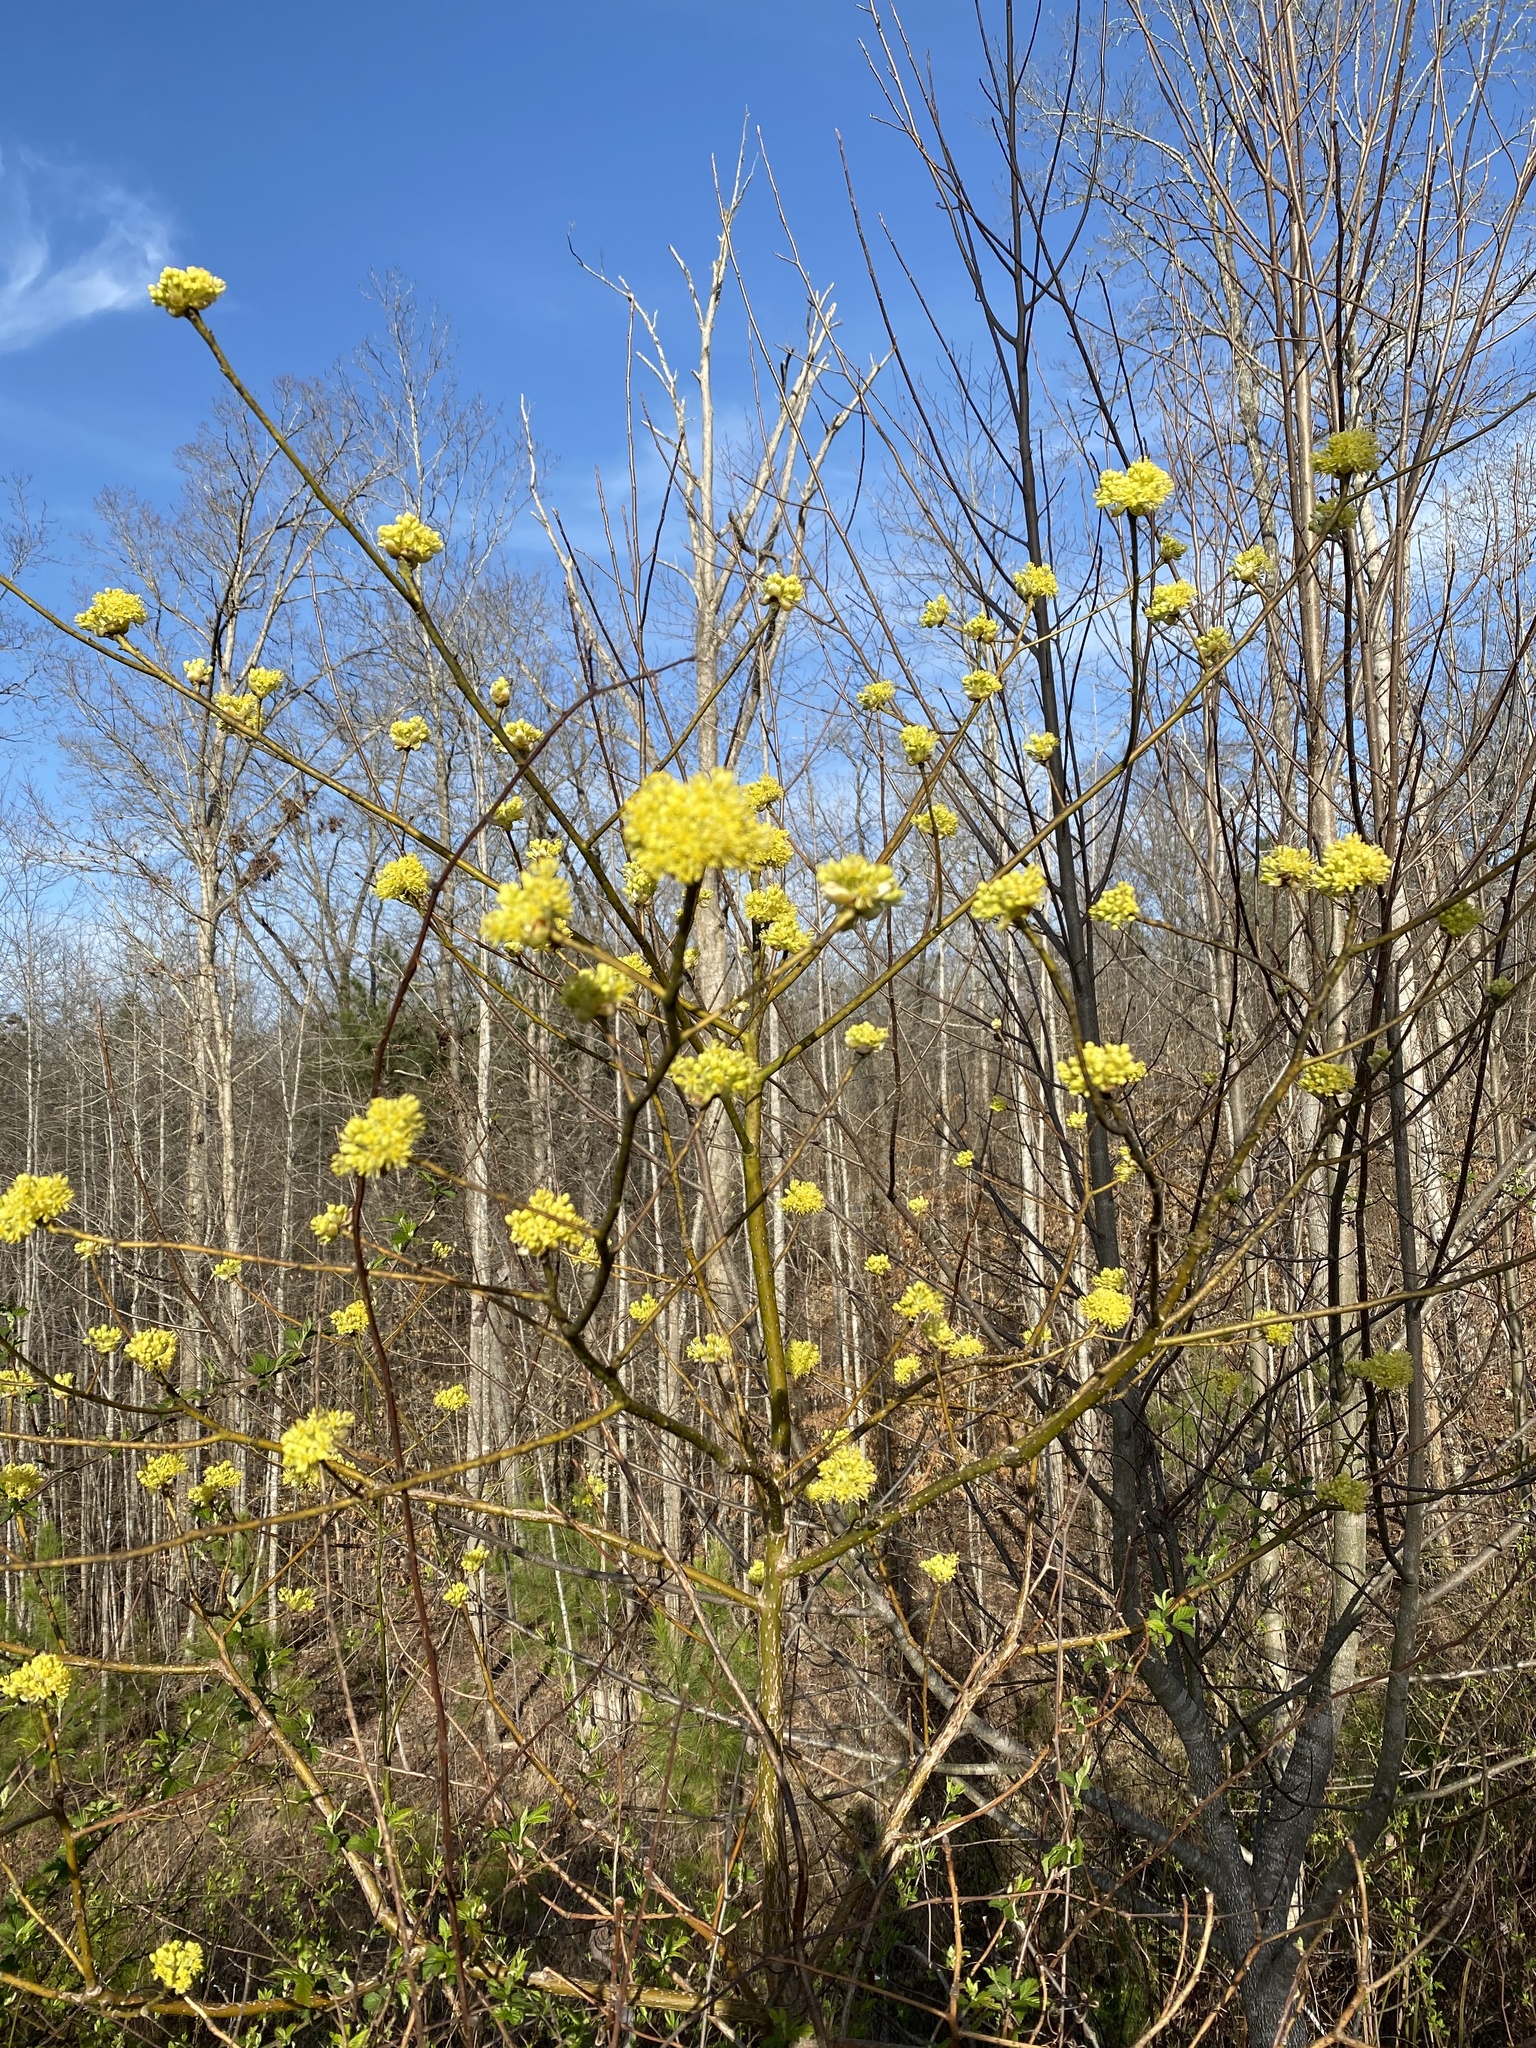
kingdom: Plantae
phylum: Tracheophyta
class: Magnoliopsida
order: Laurales
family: Lauraceae
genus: Sassafras
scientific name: Sassafras albidum
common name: Sassafras
